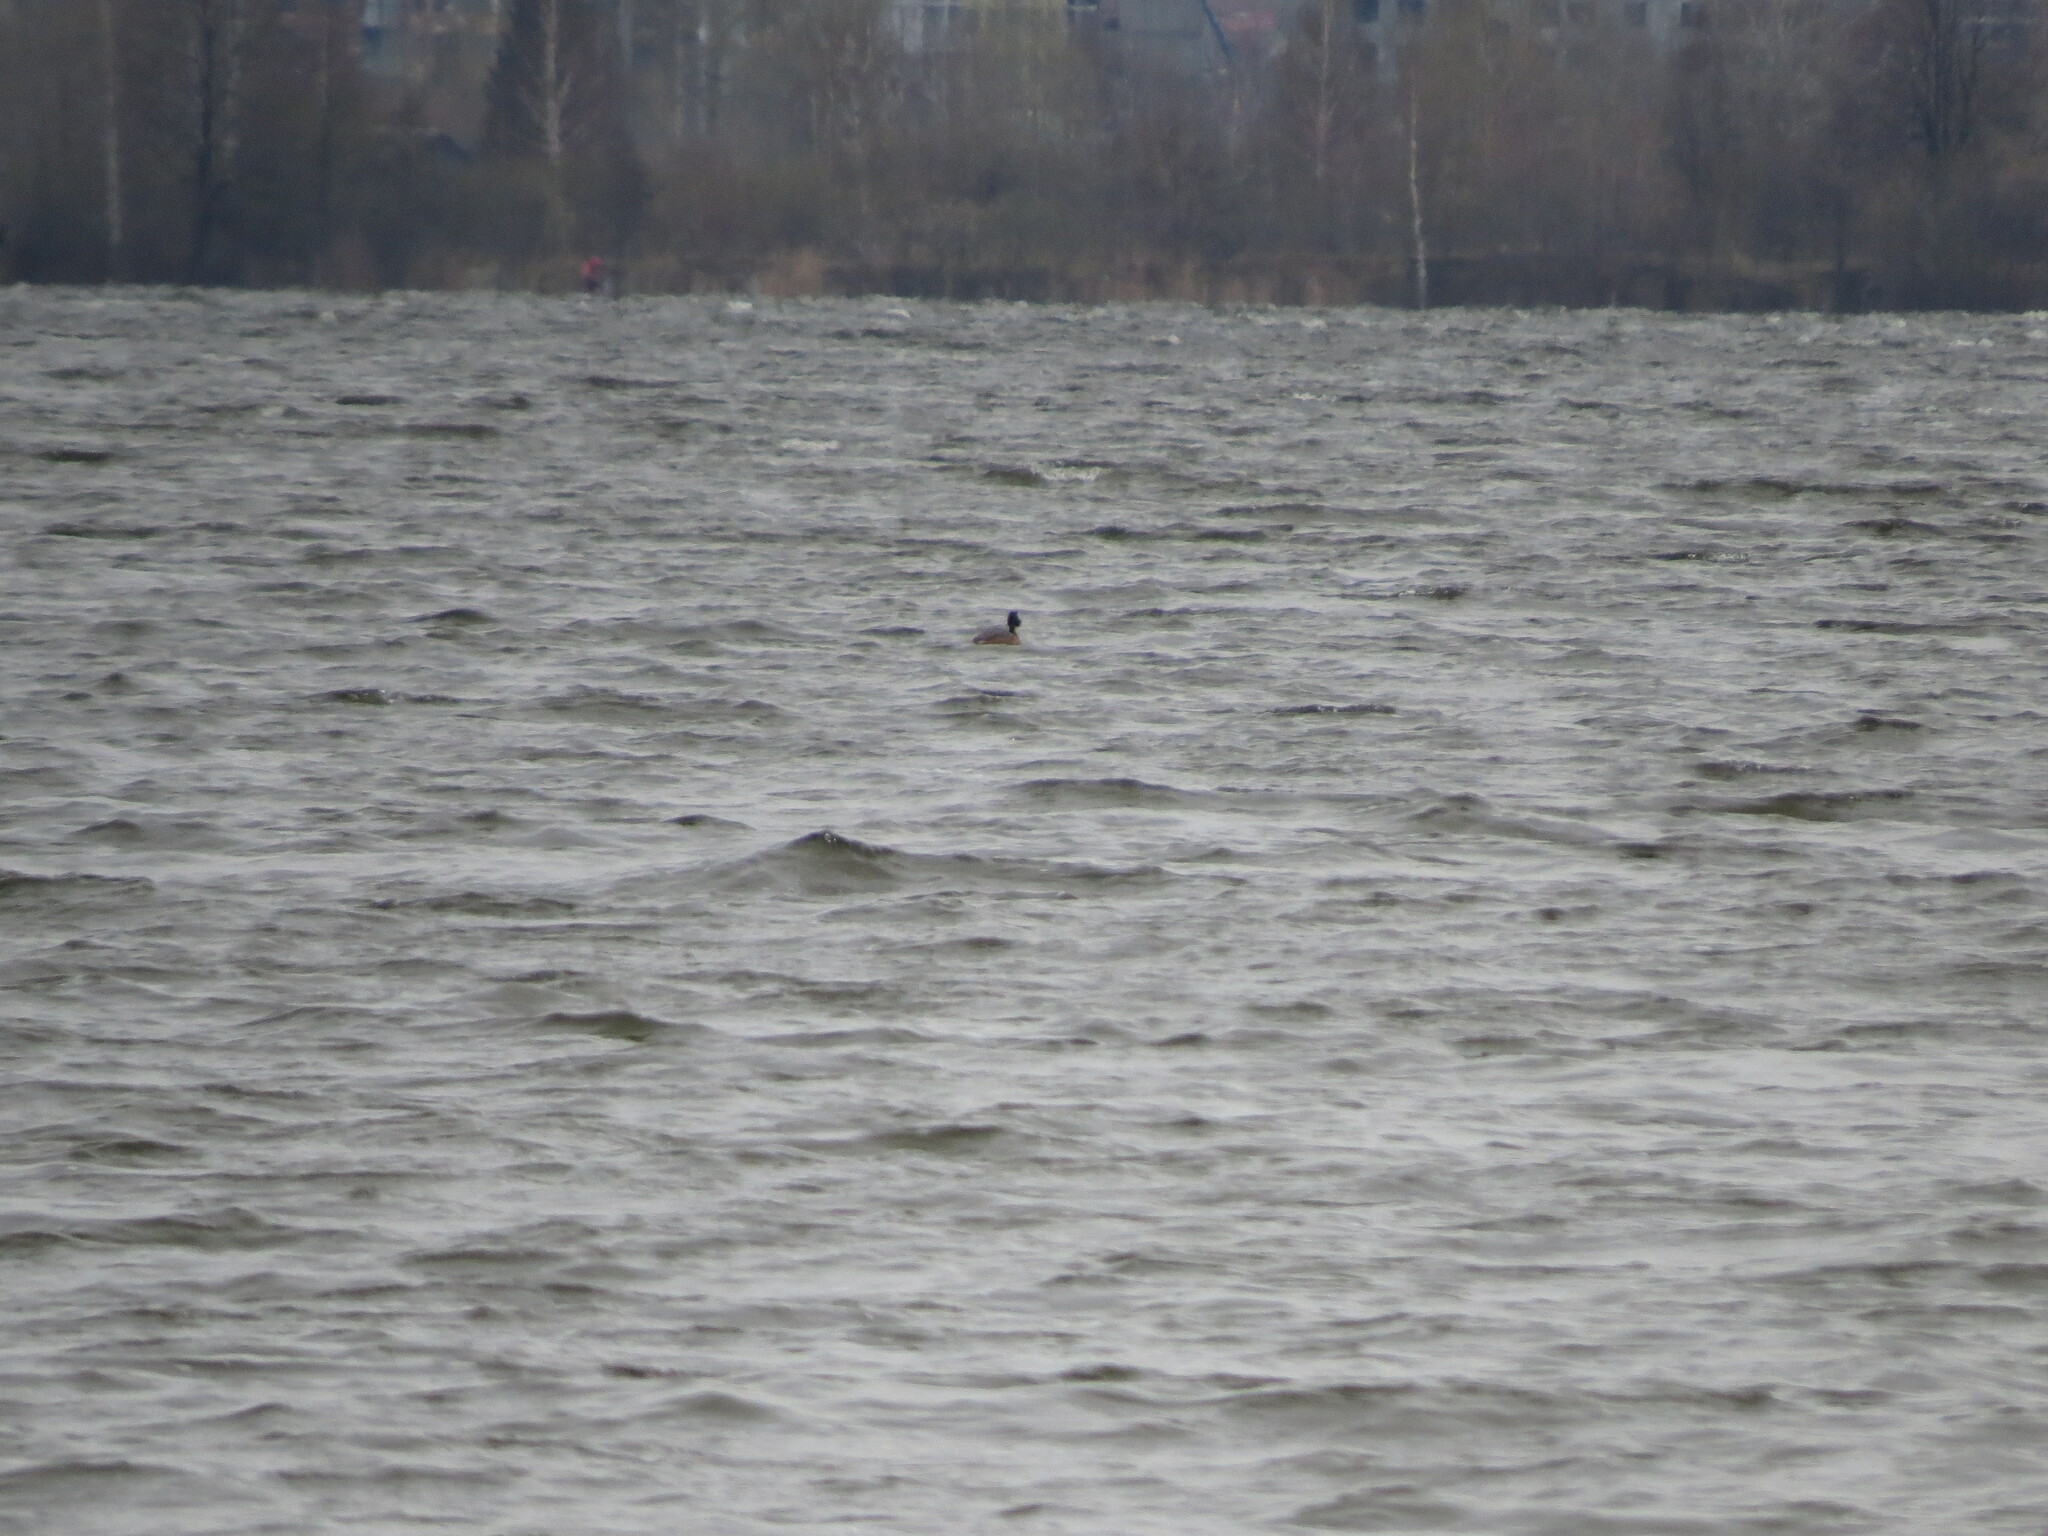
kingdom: Animalia
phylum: Chordata
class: Aves
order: Podicipediformes
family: Podicipedidae
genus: Podiceps
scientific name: Podiceps cristatus
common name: Great crested grebe
